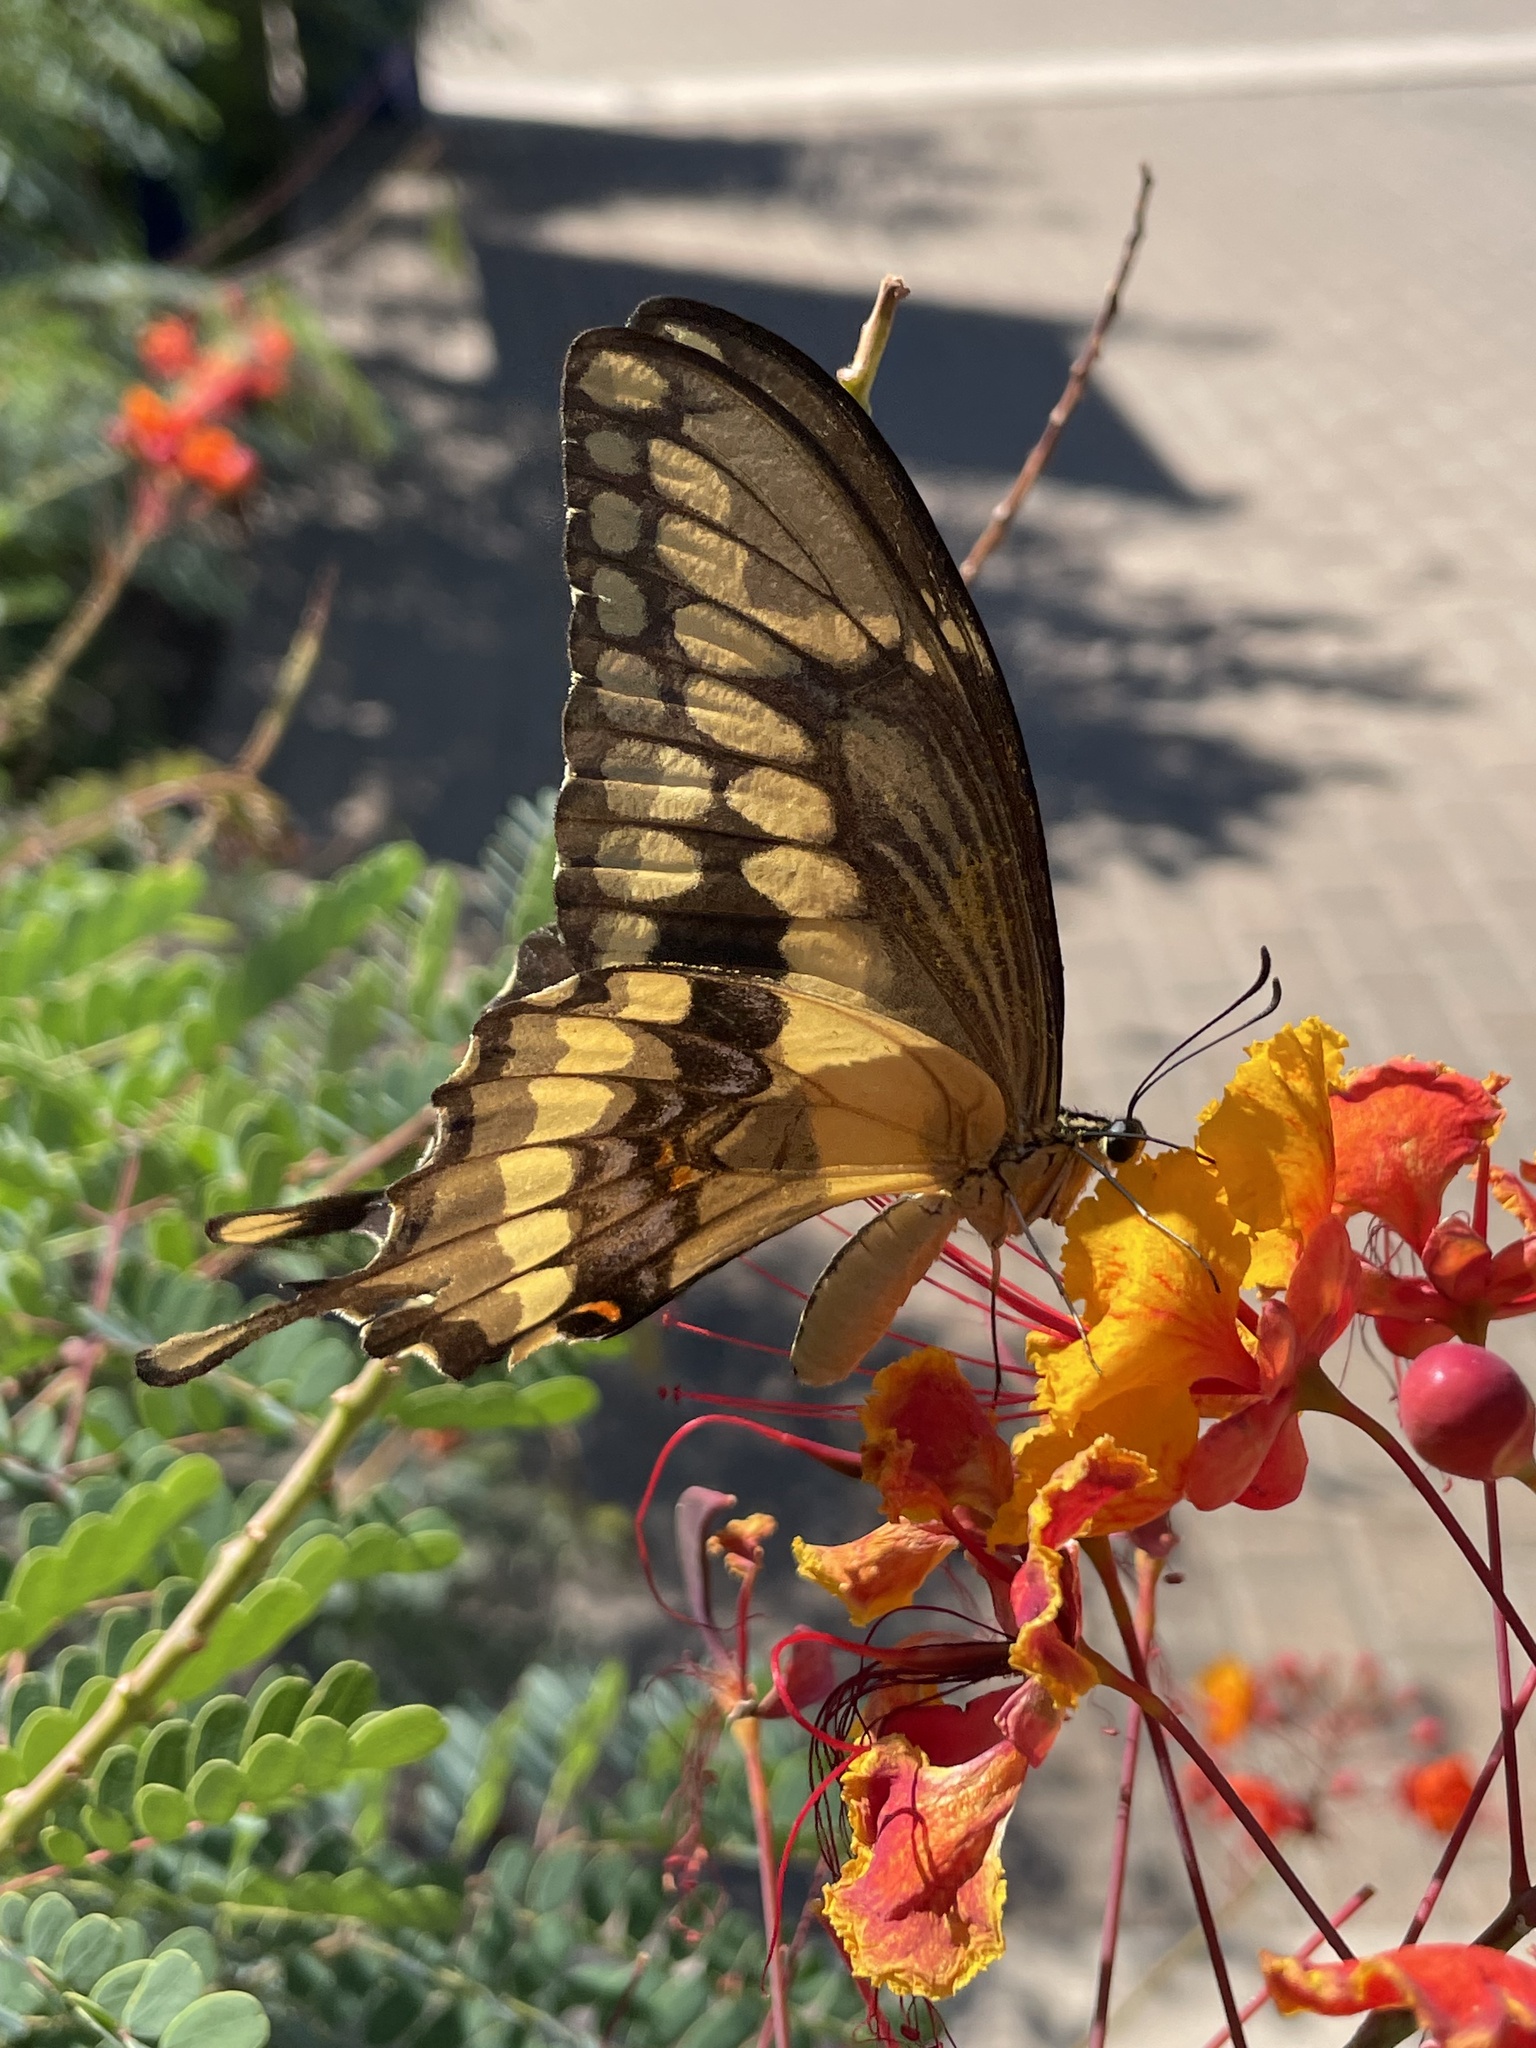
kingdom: Animalia
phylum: Arthropoda
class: Insecta
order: Lepidoptera
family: Papilionidae
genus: Papilio
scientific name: Papilio rumiko
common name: Western giant swallowtail
